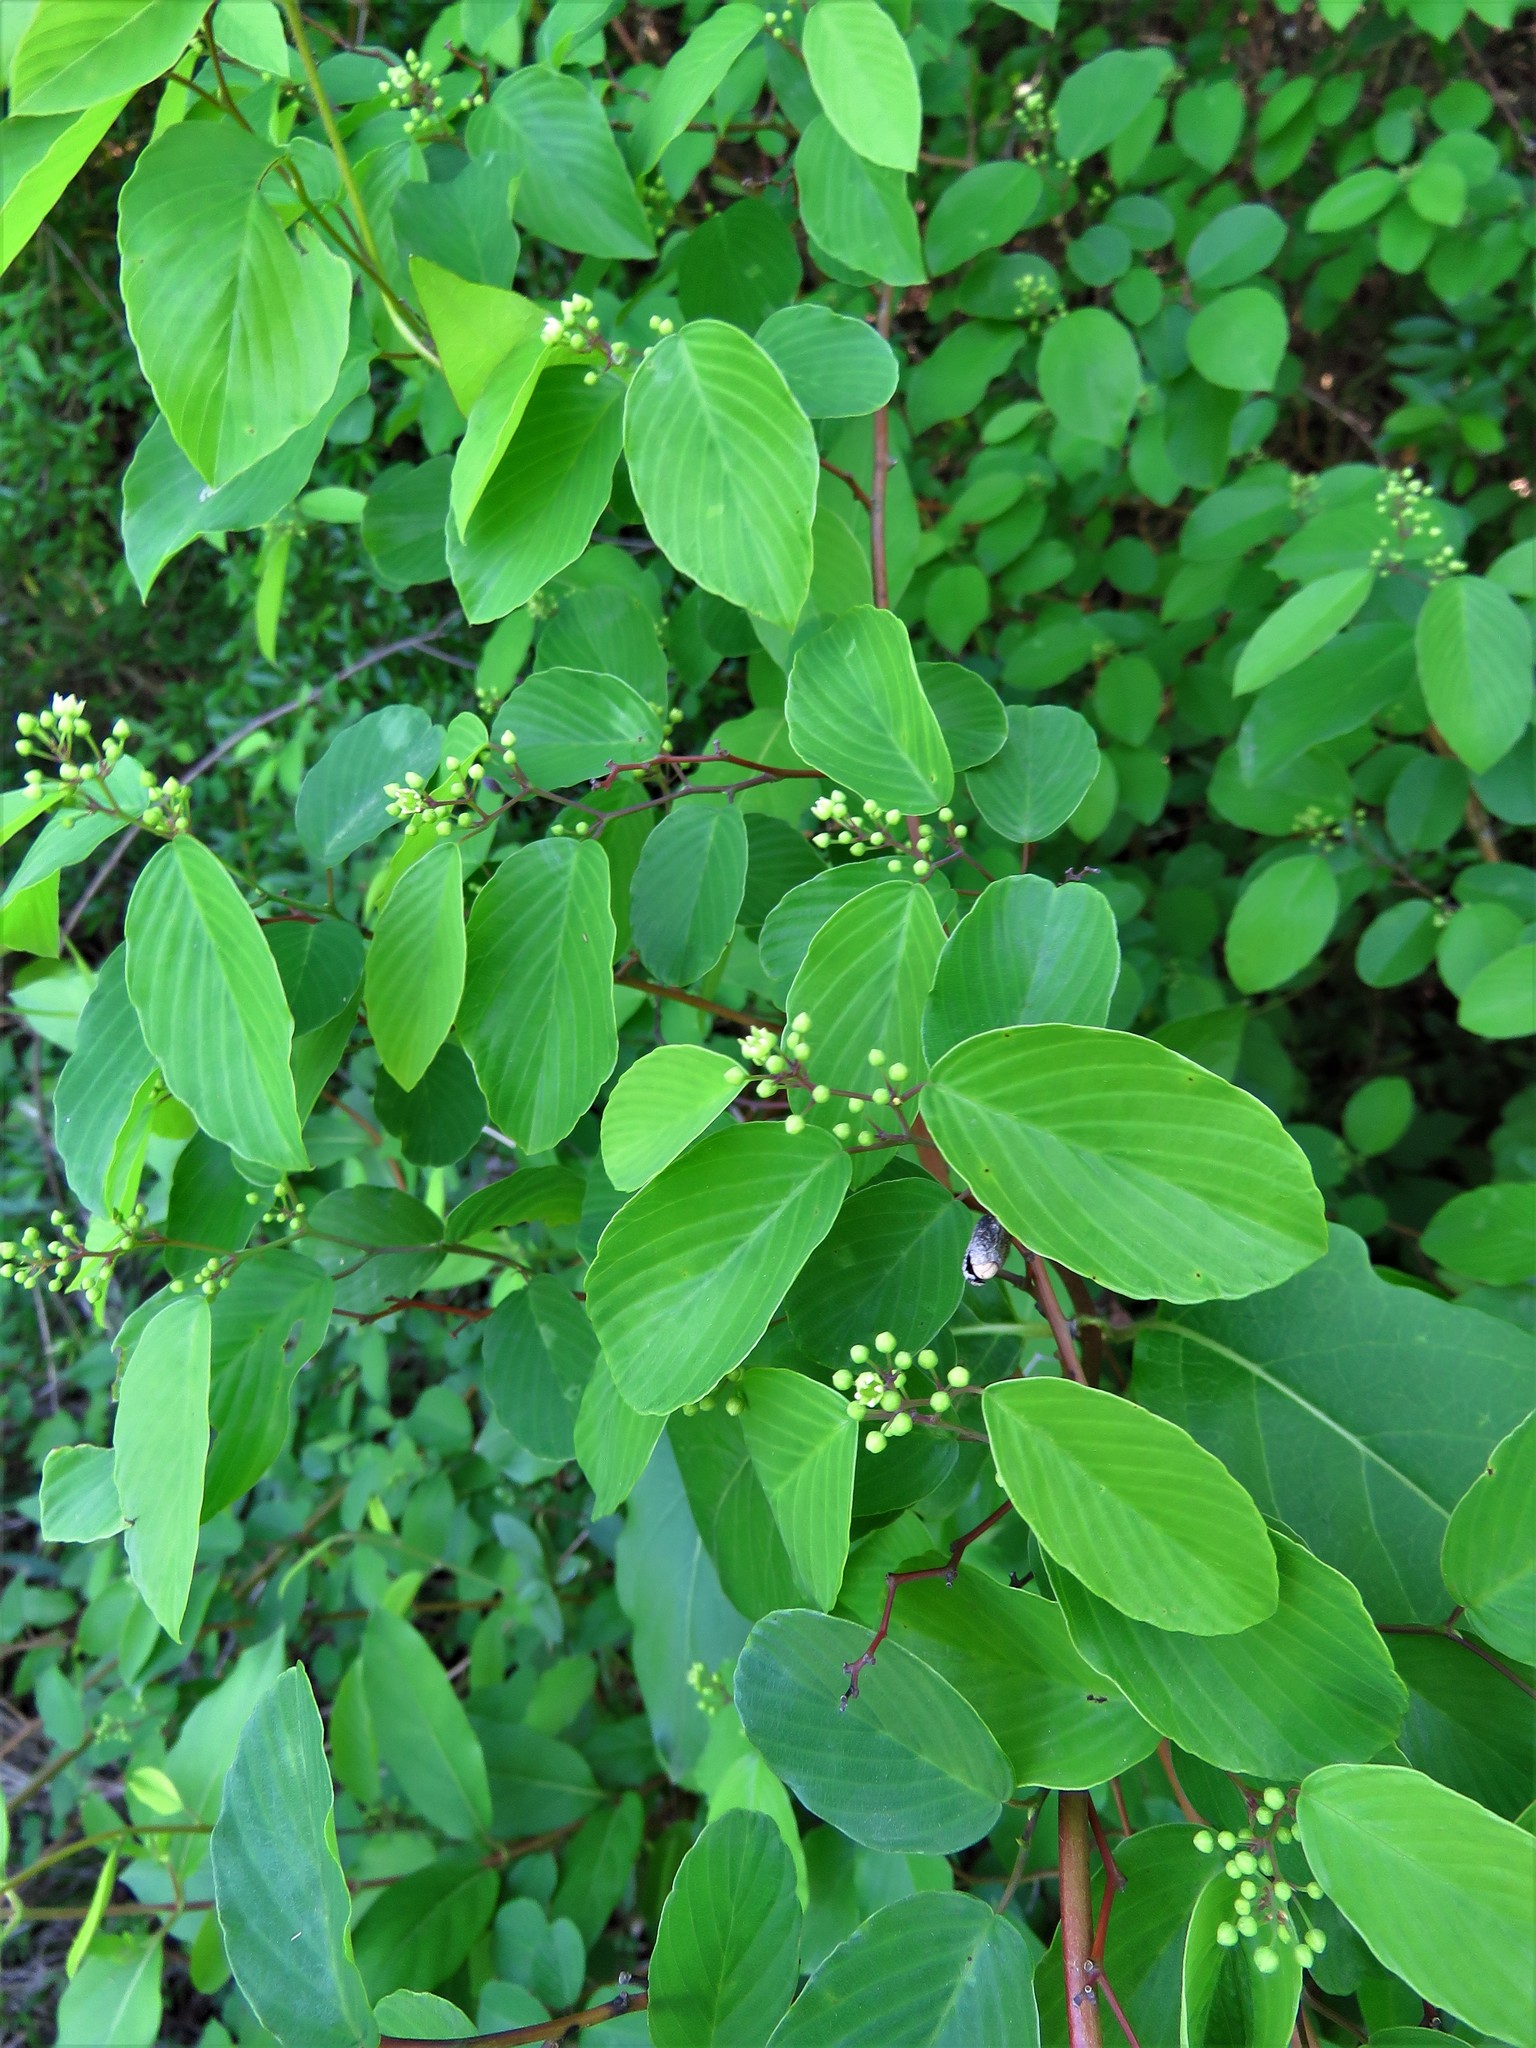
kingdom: Plantae
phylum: Tracheophyta
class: Magnoliopsida
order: Rosales
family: Rhamnaceae
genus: Berchemia
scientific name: Berchemia scandens
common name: Supplejack
